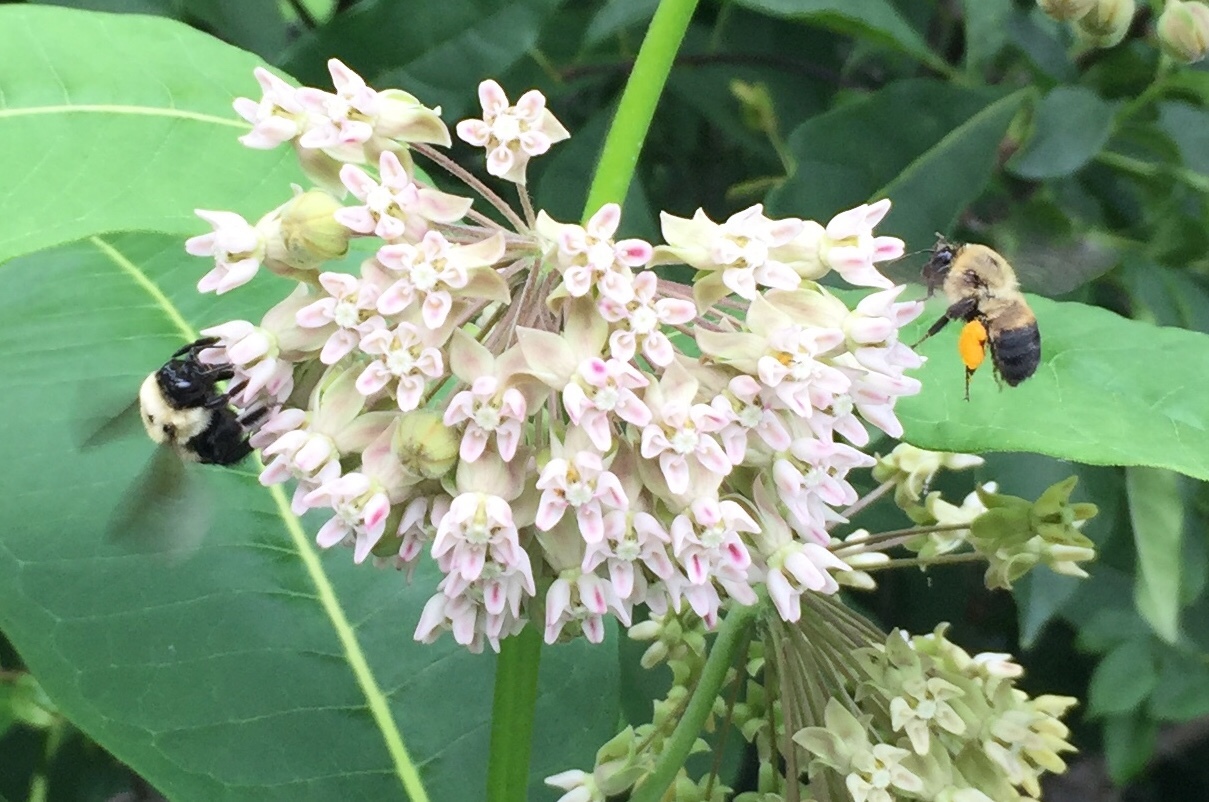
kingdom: Animalia
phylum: Arthropoda
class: Insecta
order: Hymenoptera
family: Apidae
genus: Bombus
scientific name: Bombus griseocollis
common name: Brown-belted bumble bee
